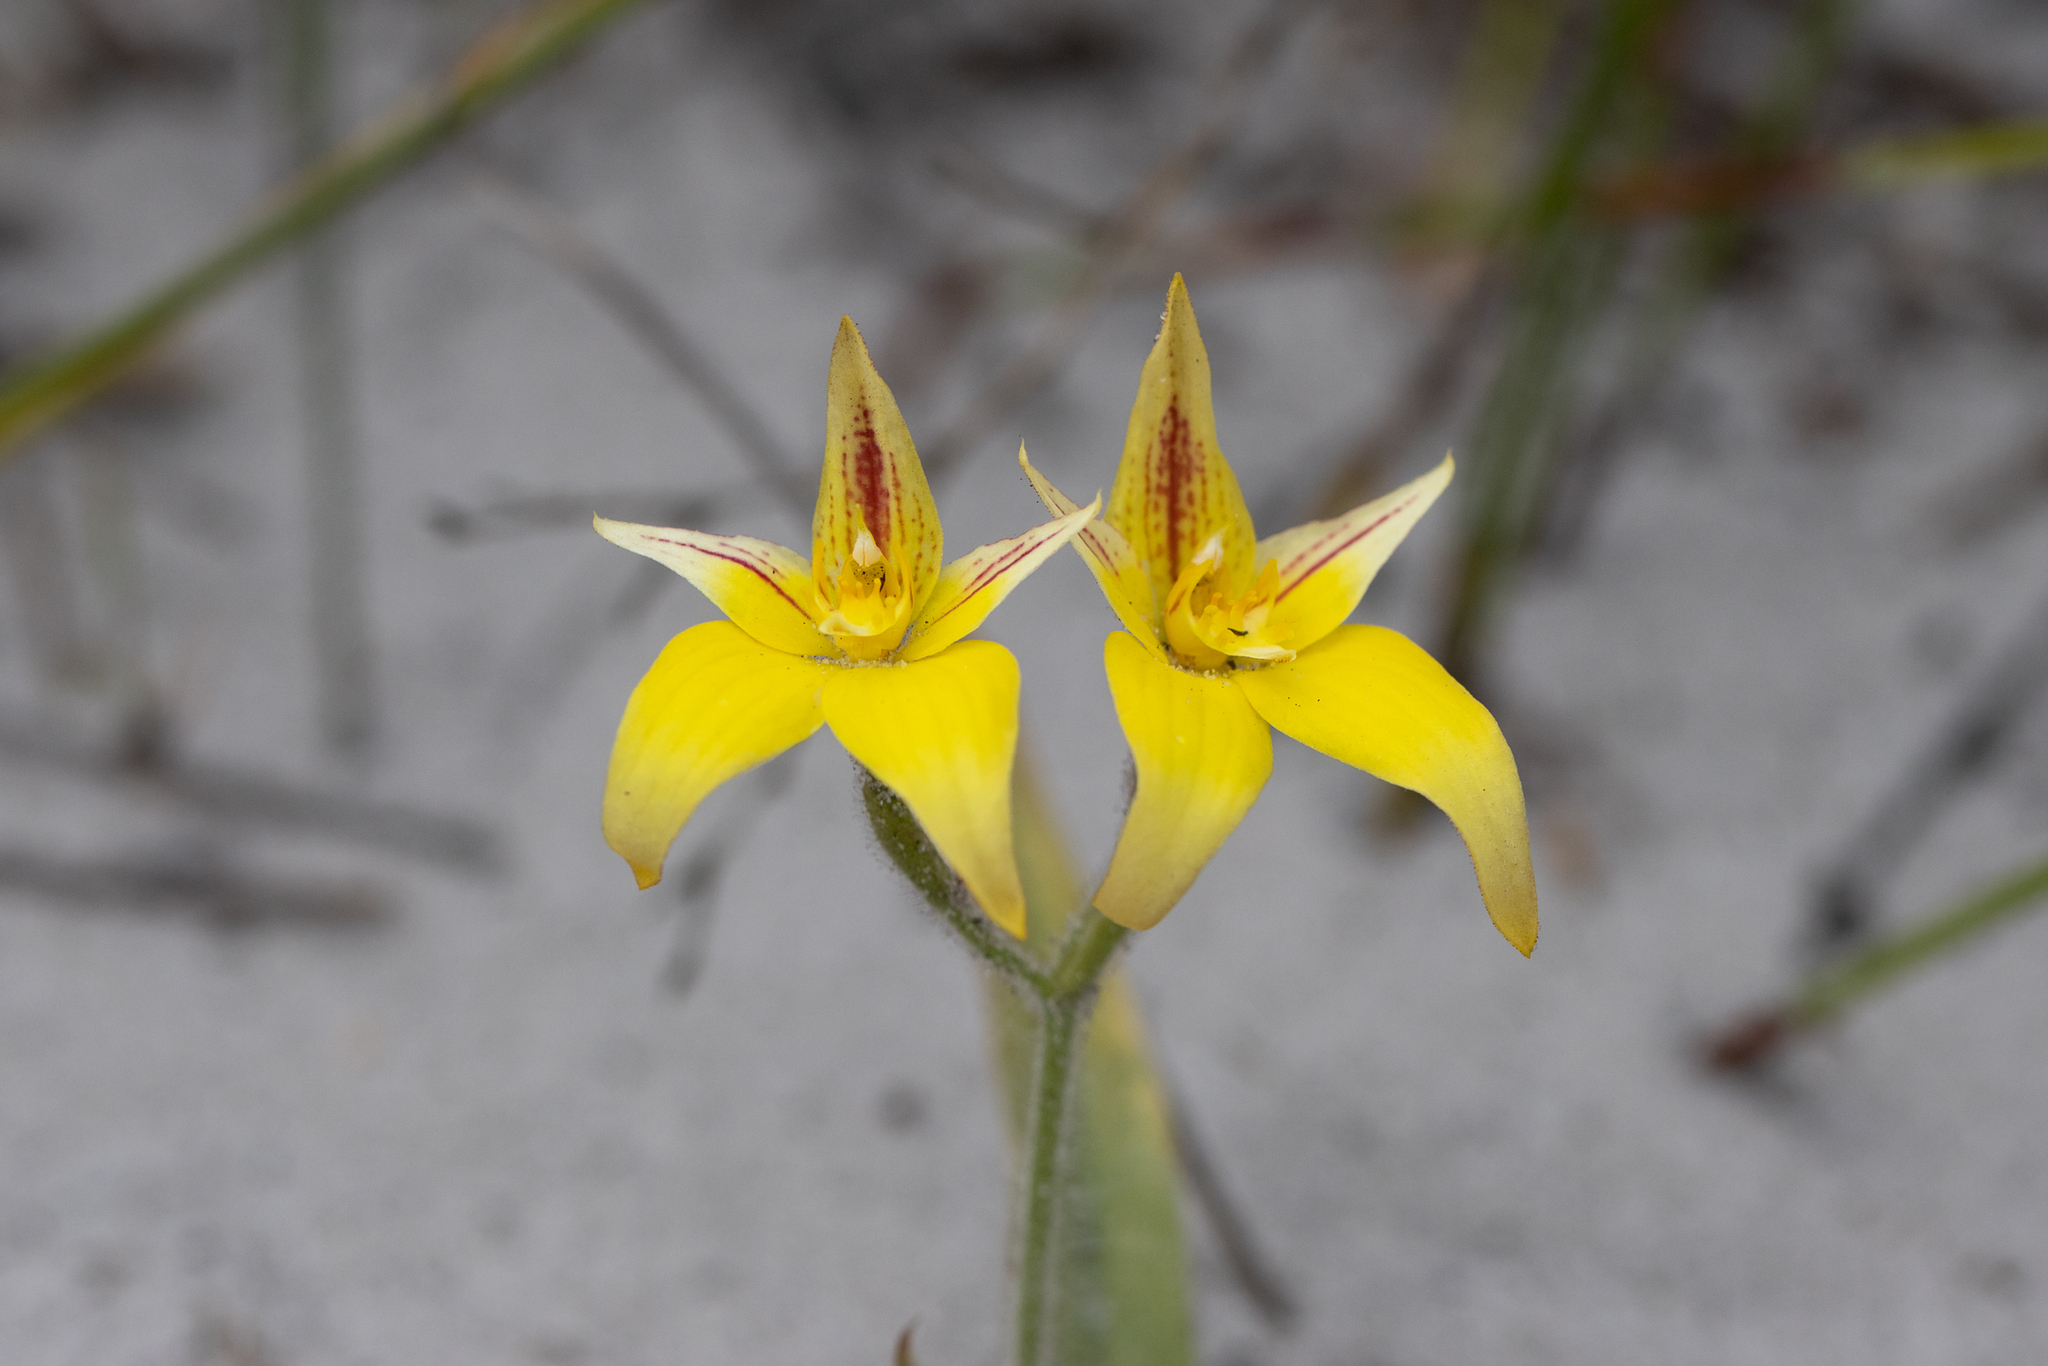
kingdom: Plantae
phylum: Tracheophyta
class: Liliopsida
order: Asparagales
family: Orchidaceae
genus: Caladenia
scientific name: Caladenia flava
